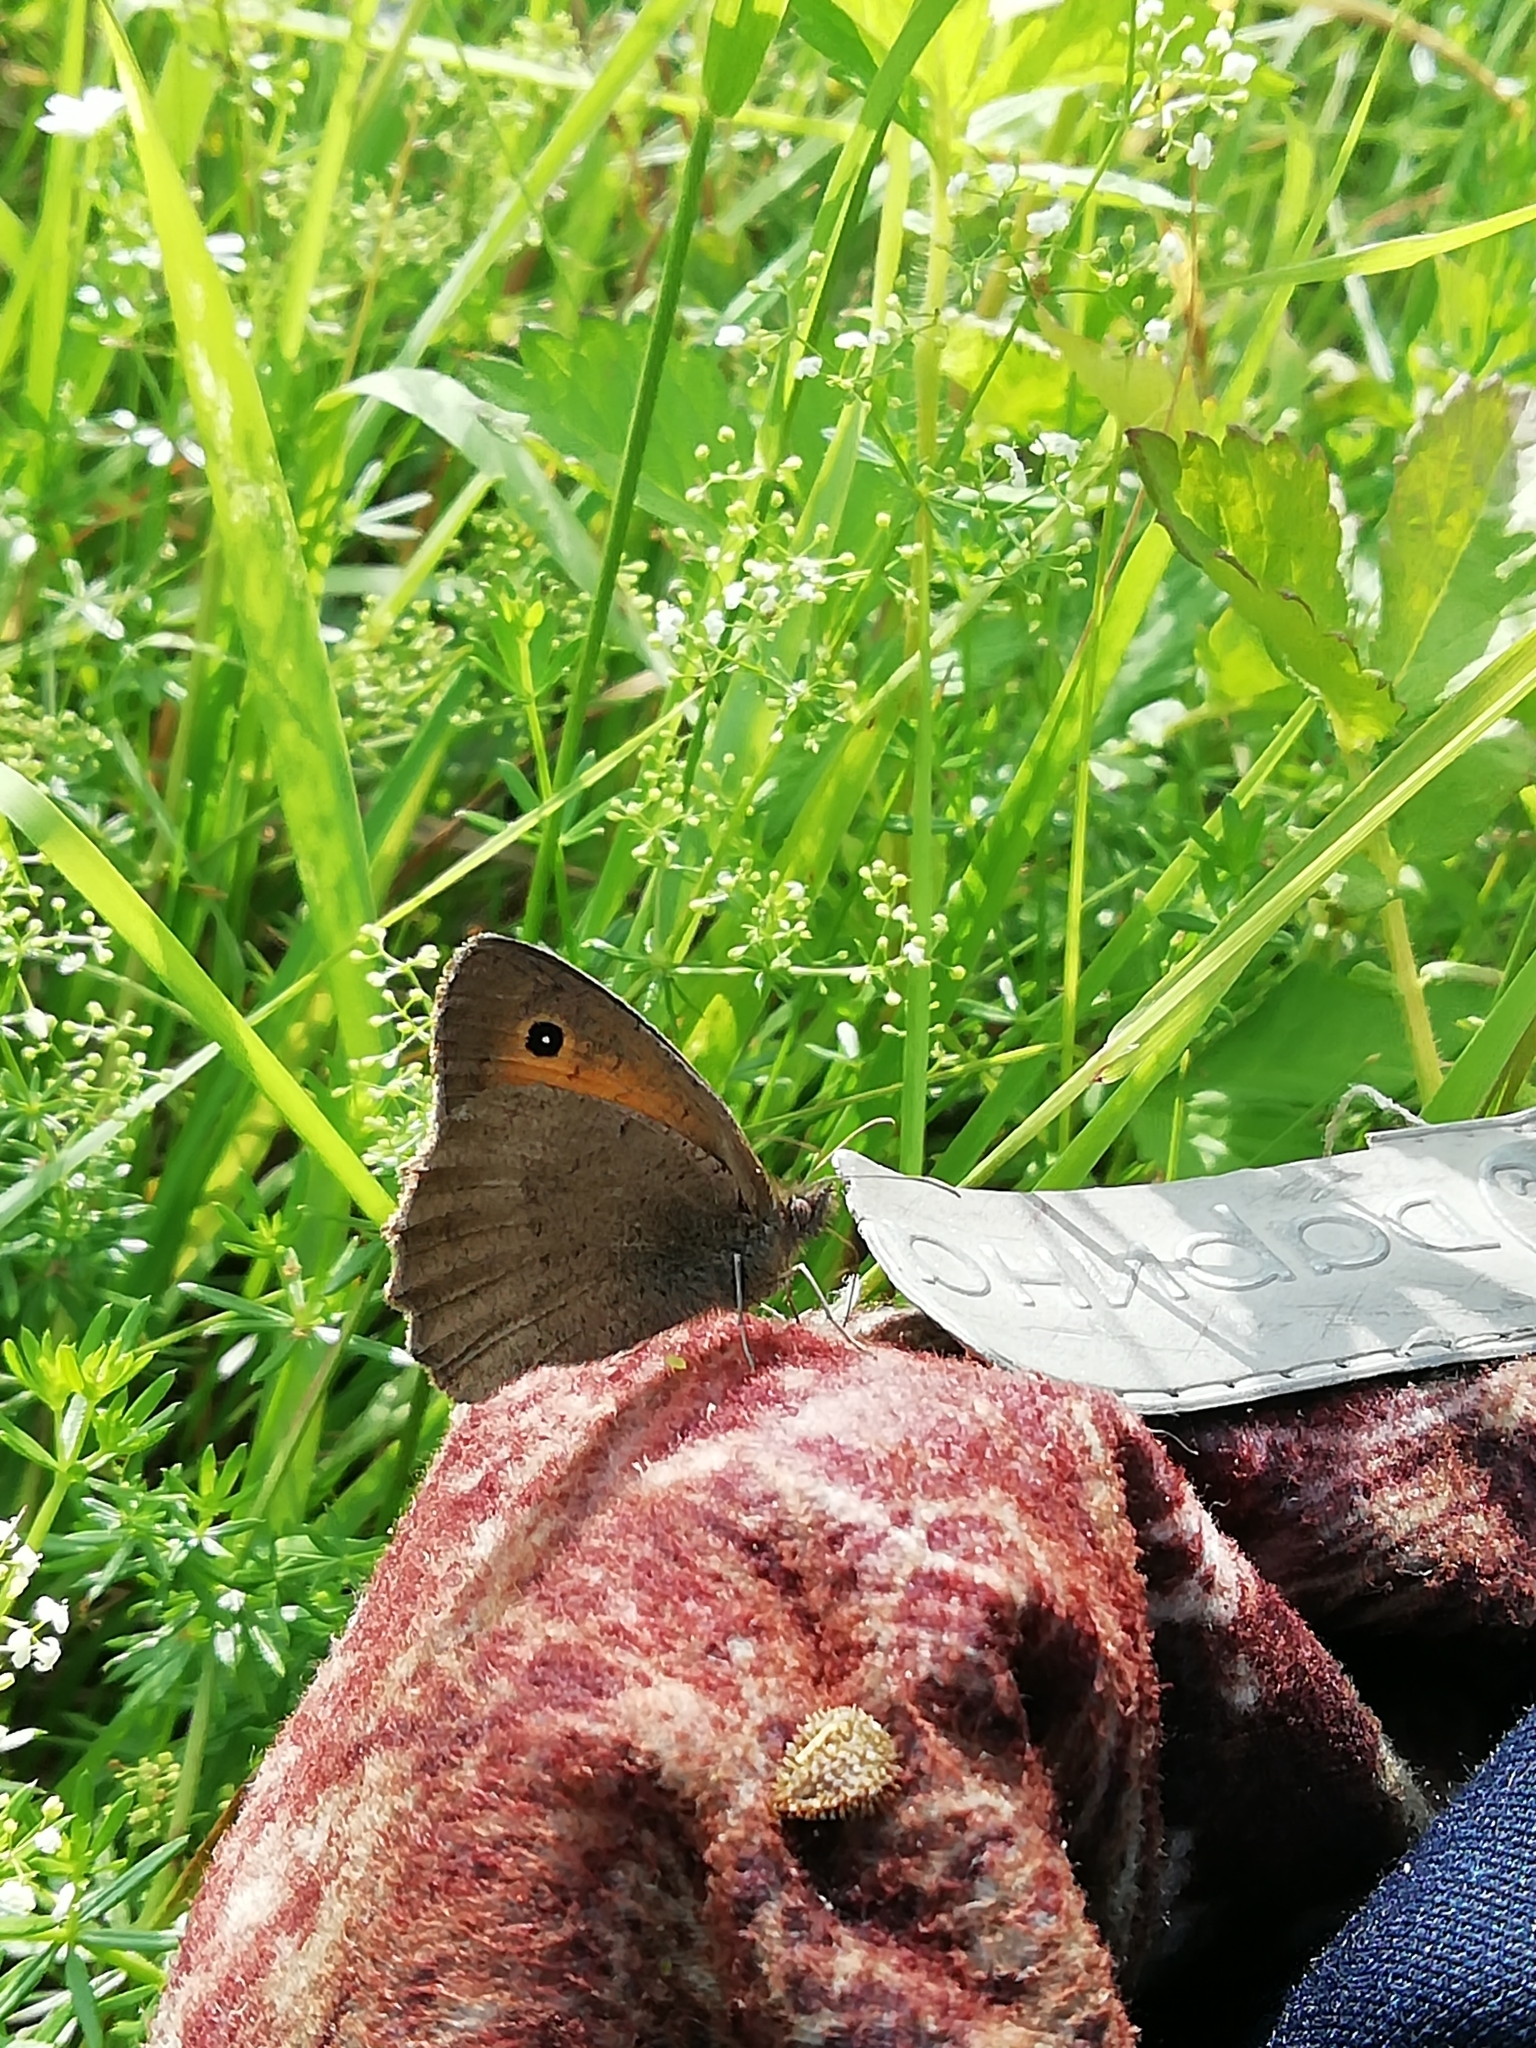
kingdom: Animalia
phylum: Arthropoda
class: Insecta
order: Lepidoptera
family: Nymphalidae
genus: Hyponephele
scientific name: Hyponephele lycaon
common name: Dusky meadow brown
